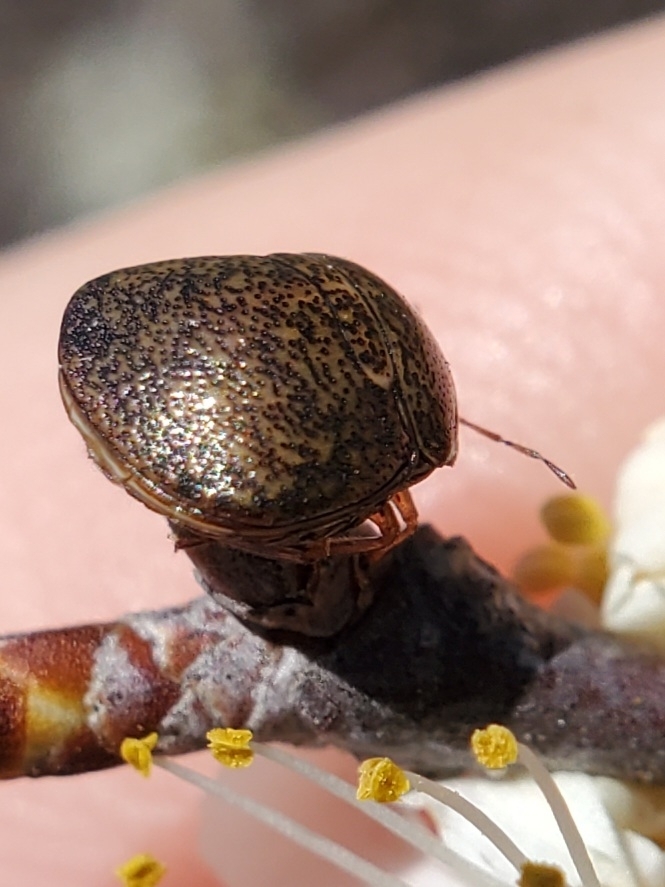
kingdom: Animalia
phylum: Arthropoda
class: Insecta
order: Hemiptera
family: Plataspidae
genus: Megacopta
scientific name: Megacopta cribraria
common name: Bean plataspid
